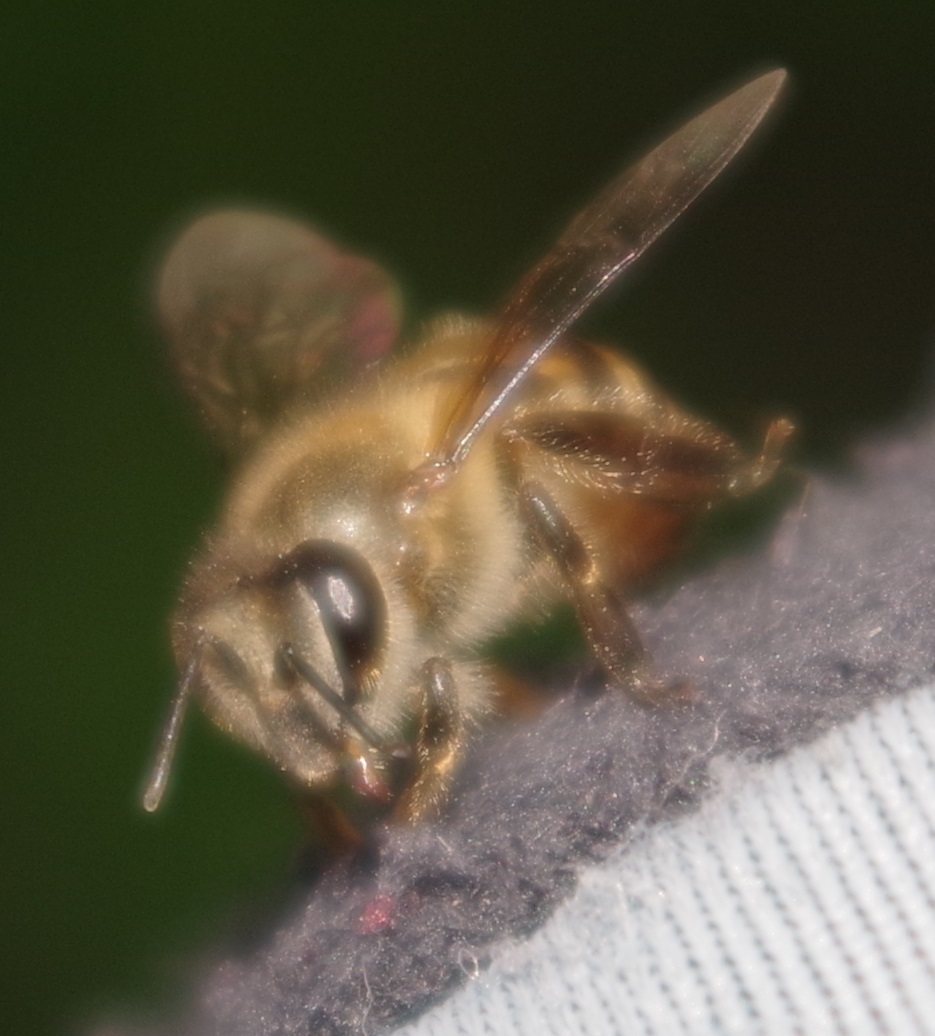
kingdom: Animalia
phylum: Arthropoda
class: Insecta
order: Hymenoptera
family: Apidae
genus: Apis
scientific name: Apis cerana
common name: Honey bee
